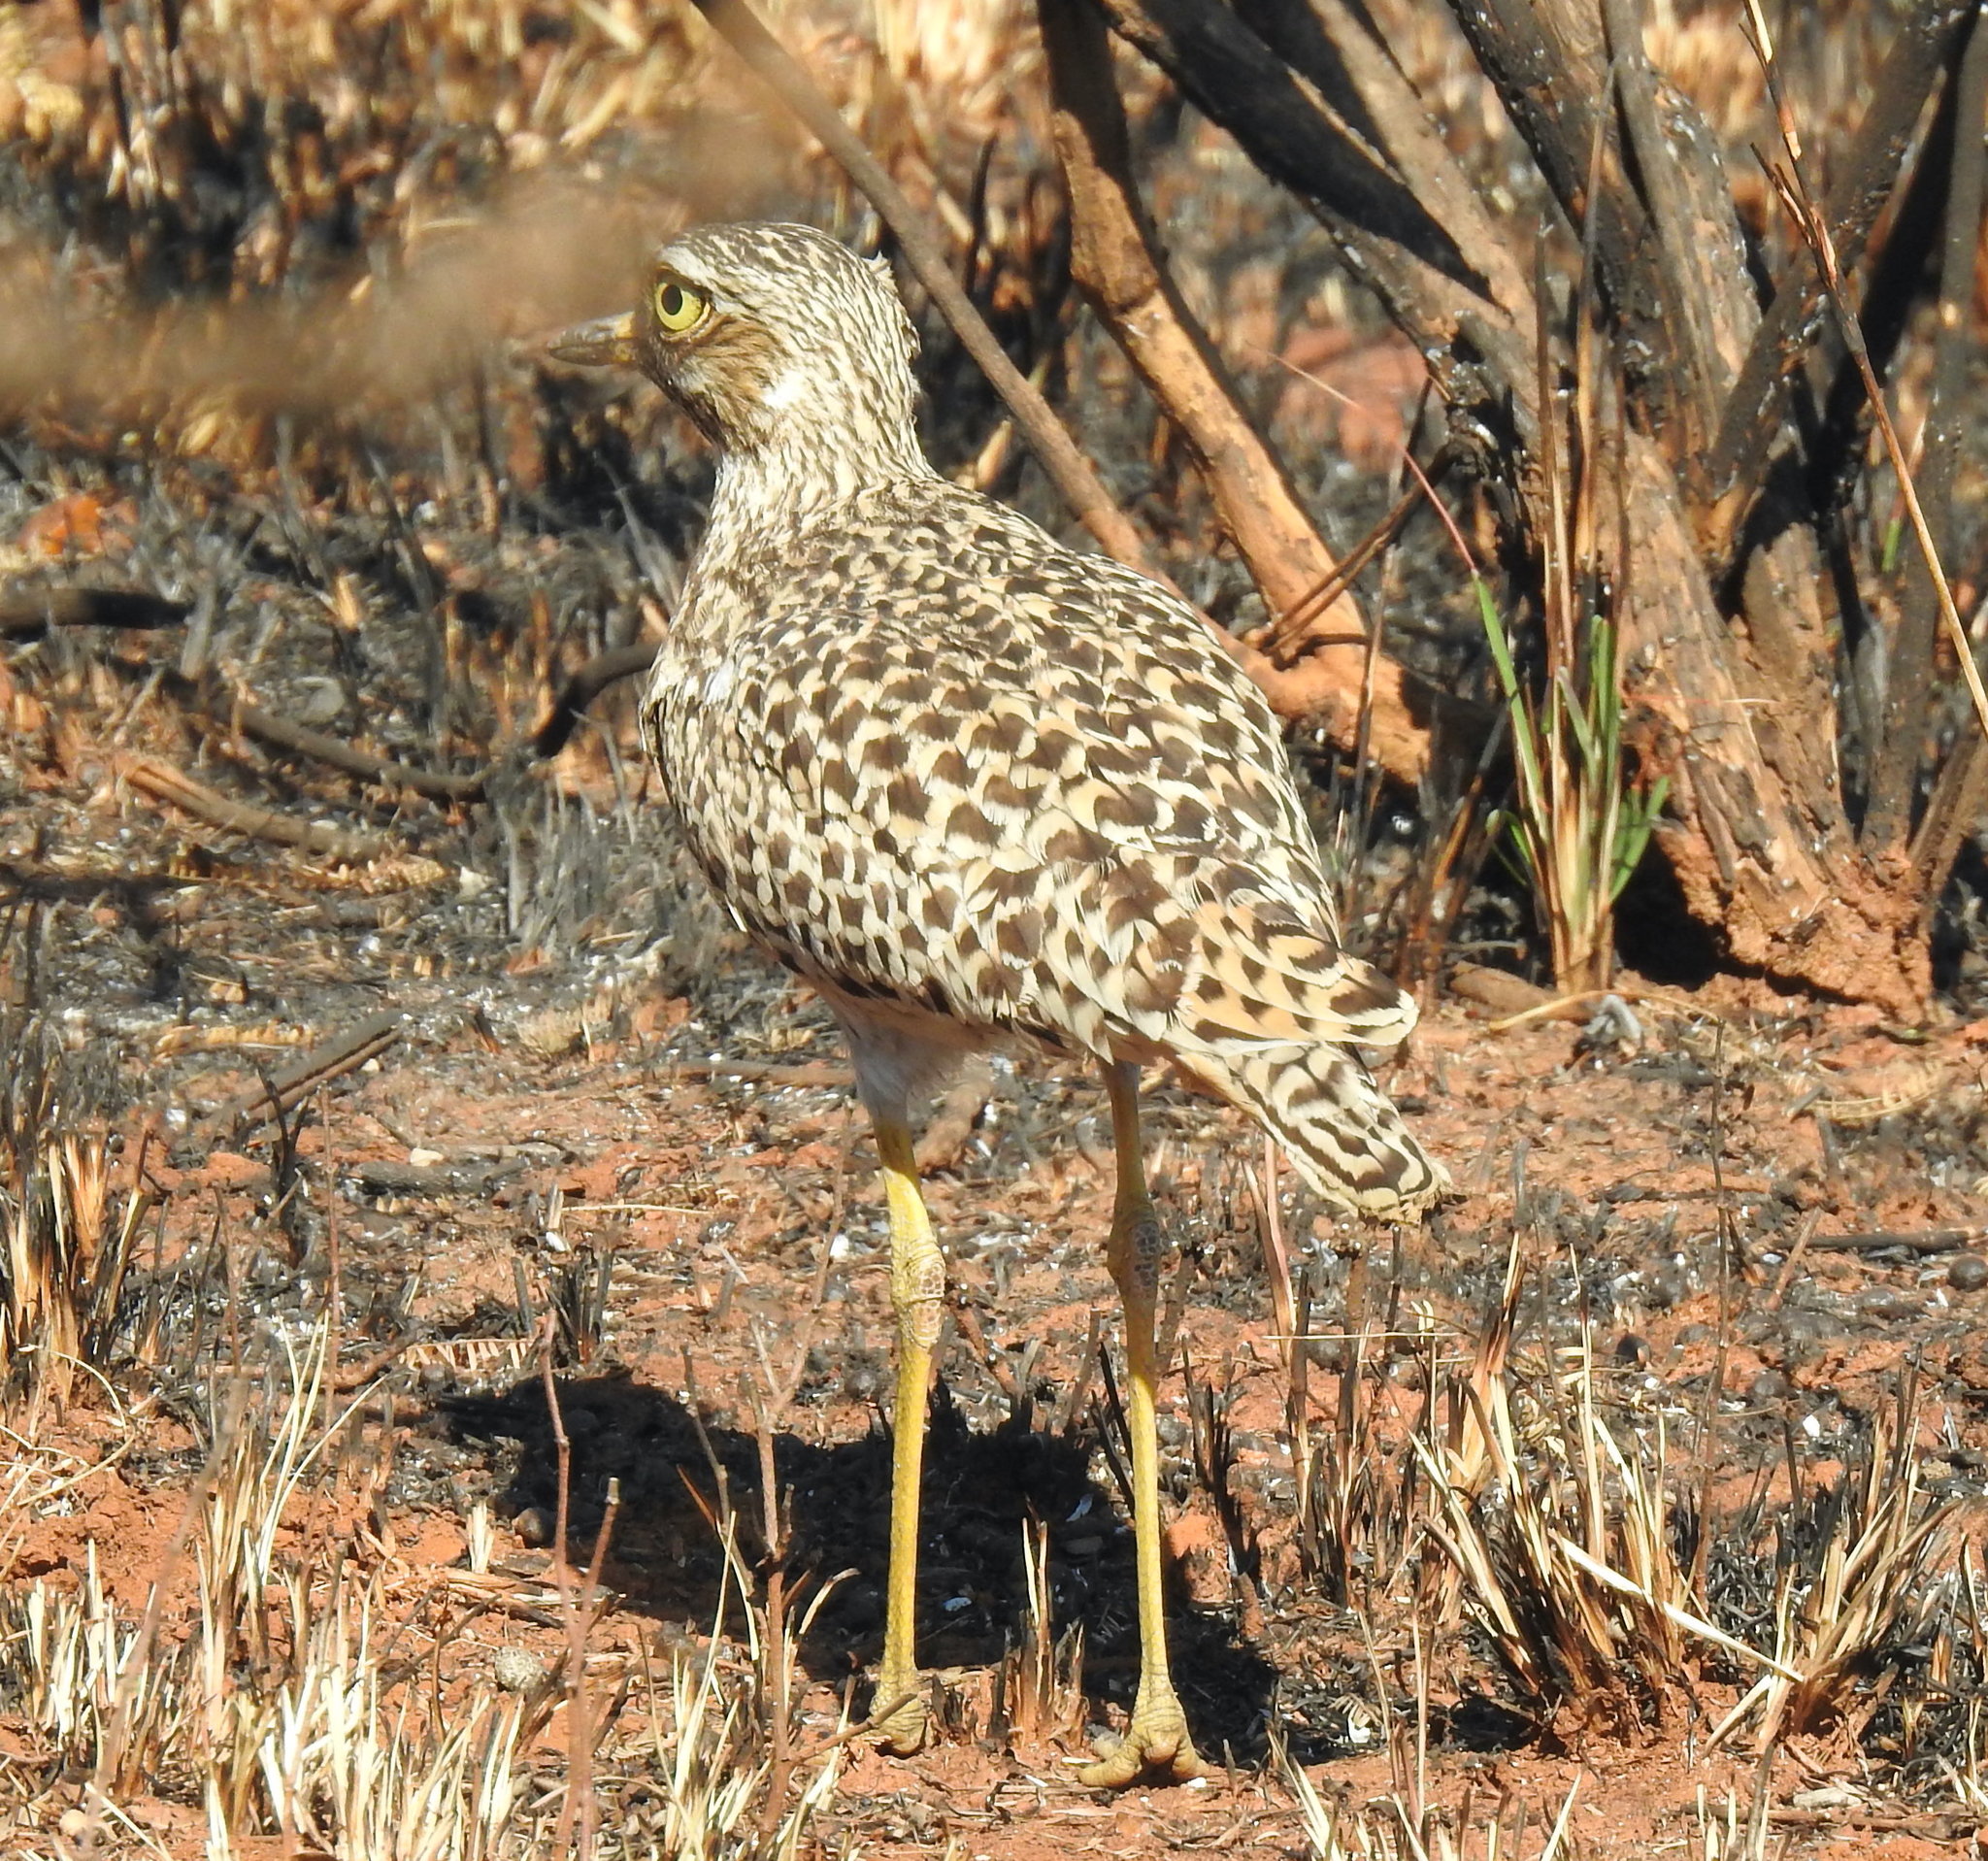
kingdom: Animalia
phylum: Chordata
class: Aves
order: Charadriiformes
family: Burhinidae
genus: Burhinus
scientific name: Burhinus capensis
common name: Spotted thick-knee
